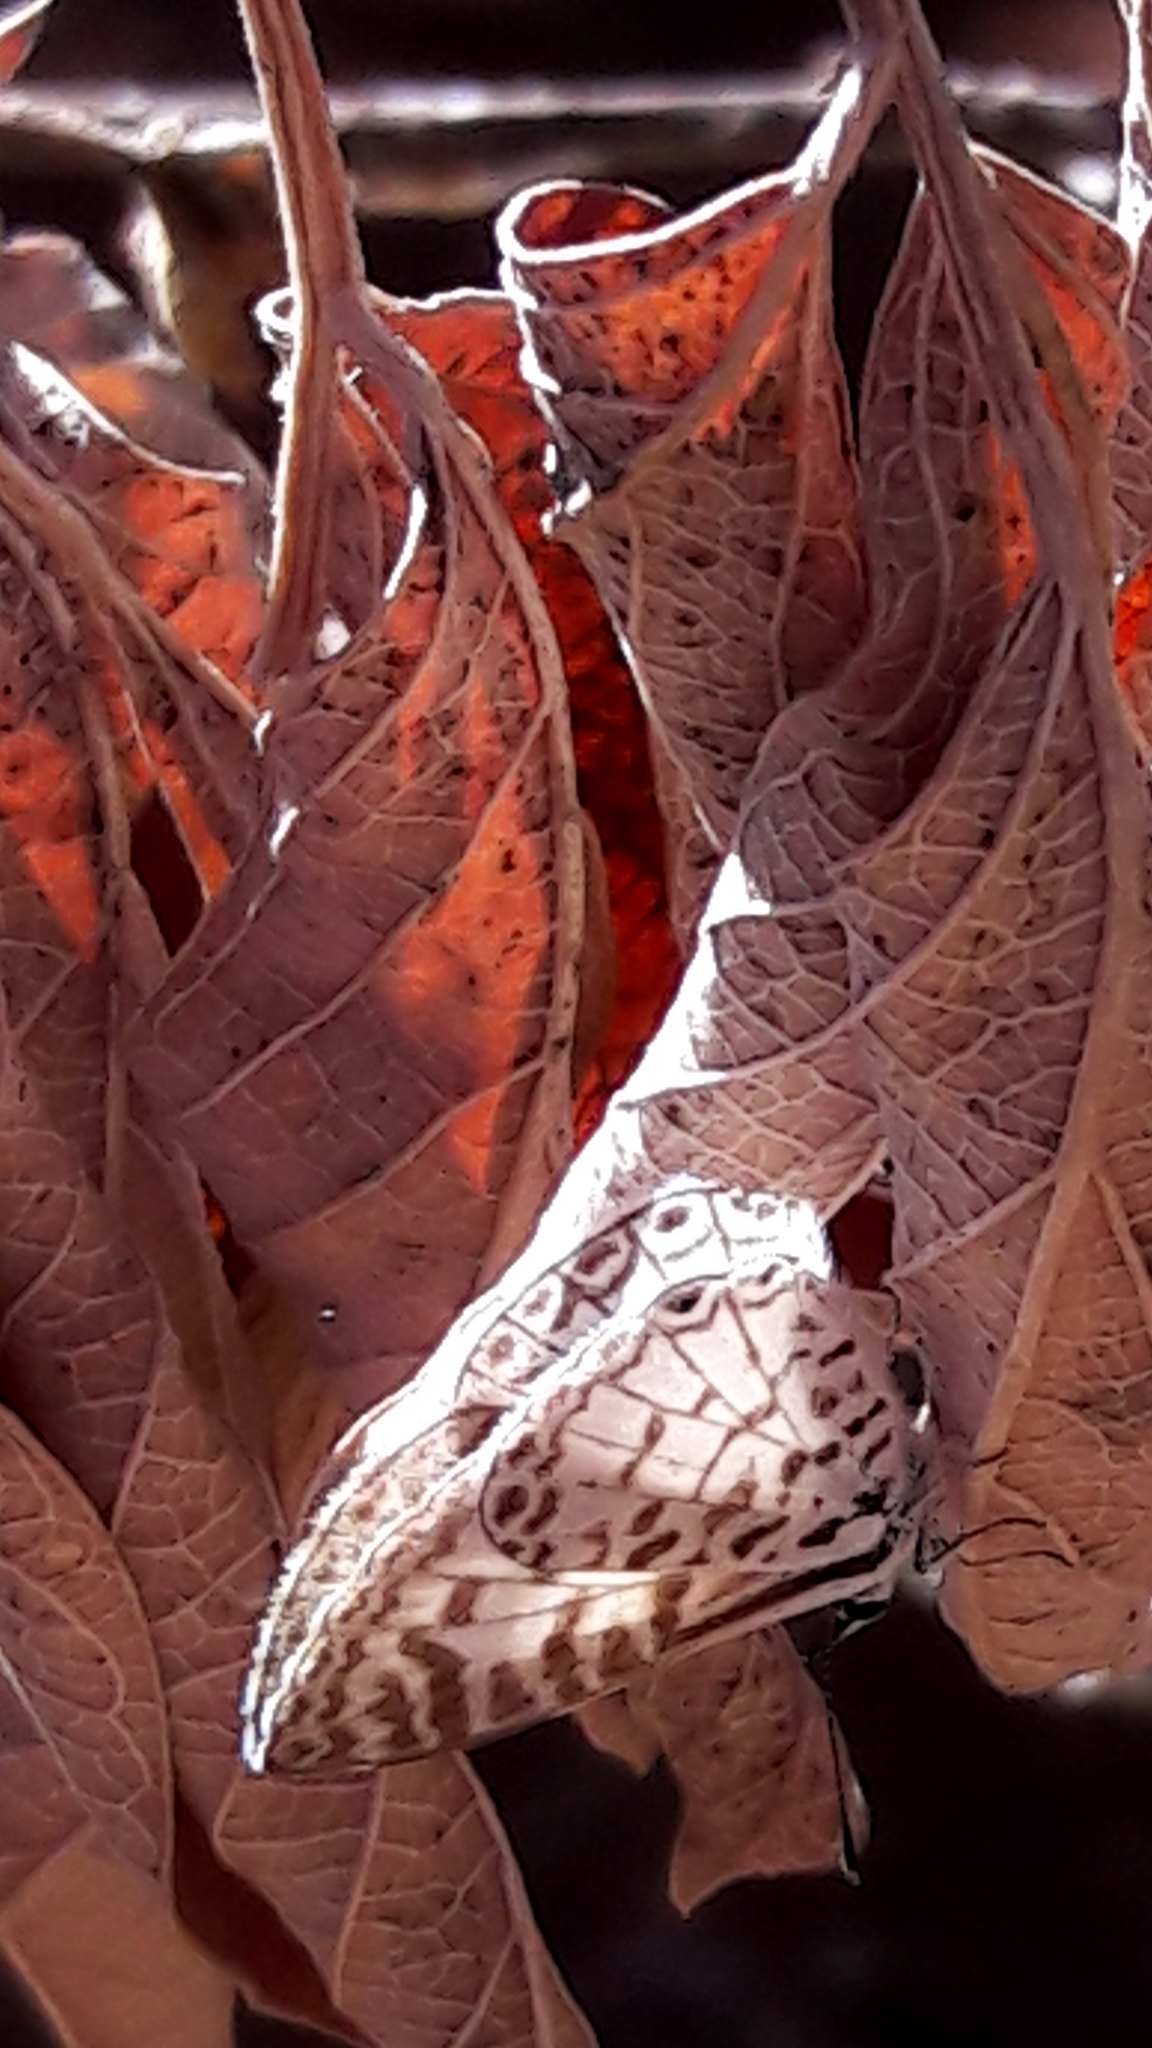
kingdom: Animalia
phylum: Arthropoda
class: Insecta
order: Lepidoptera
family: Lycaenidae
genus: Leptotes
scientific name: Leptotes cassius
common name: Cassius blue
